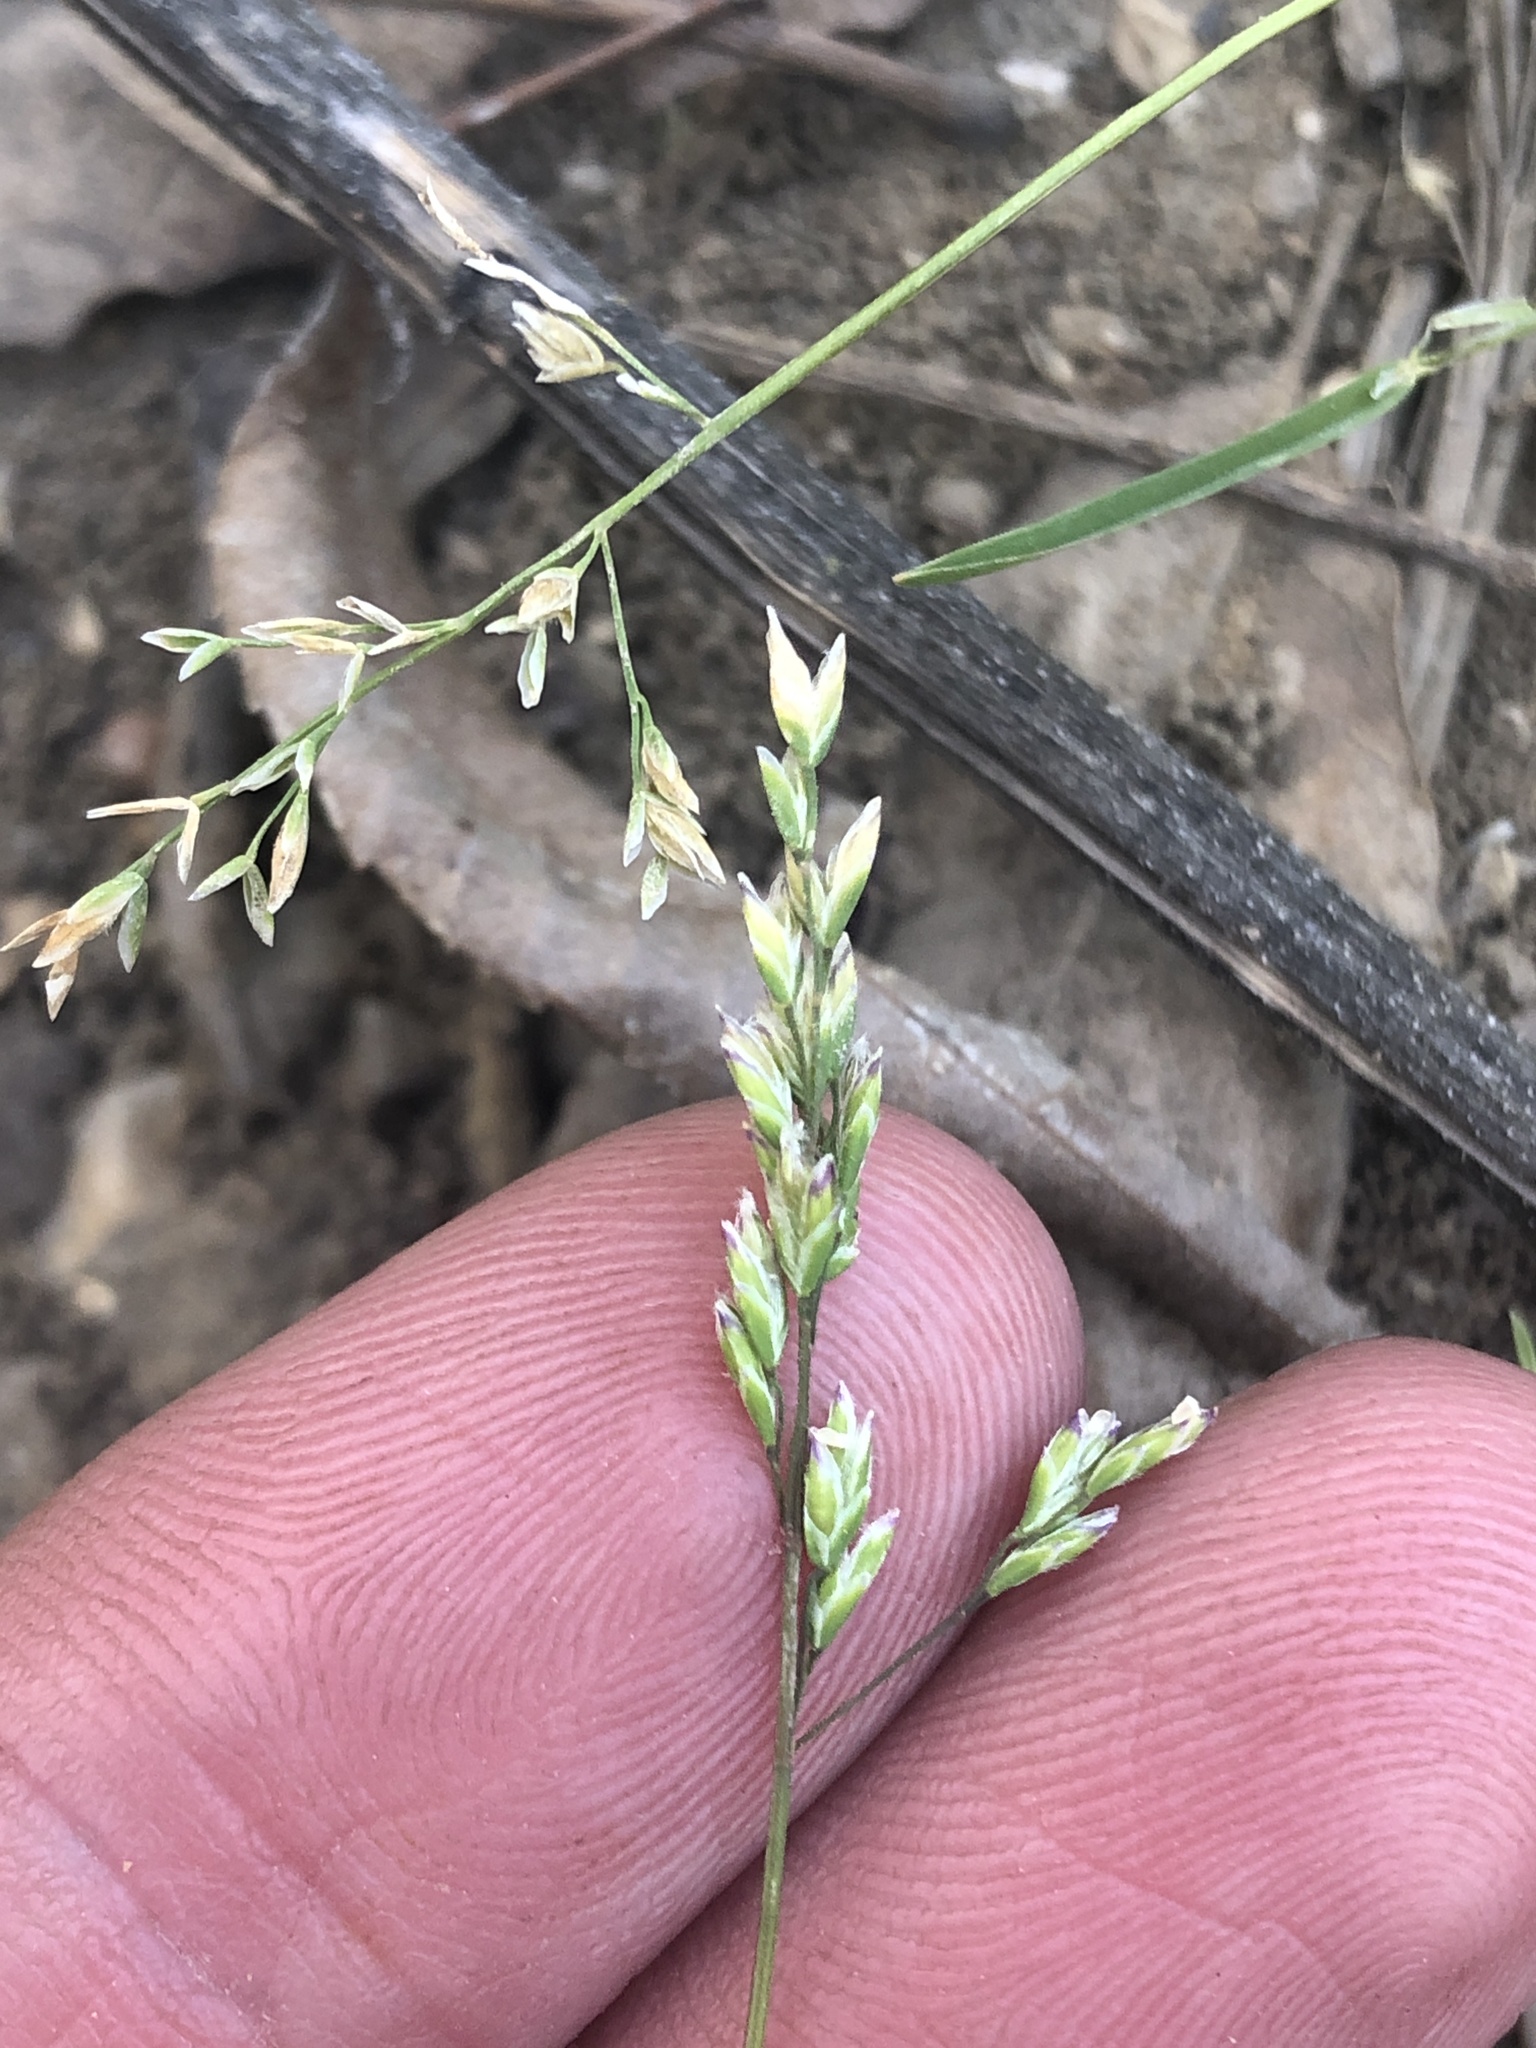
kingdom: Plantae
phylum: Tracheophyta
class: Liliopsida
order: Poales
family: Poaceae
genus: Poa
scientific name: Poa annua
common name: Annual bluegrass
